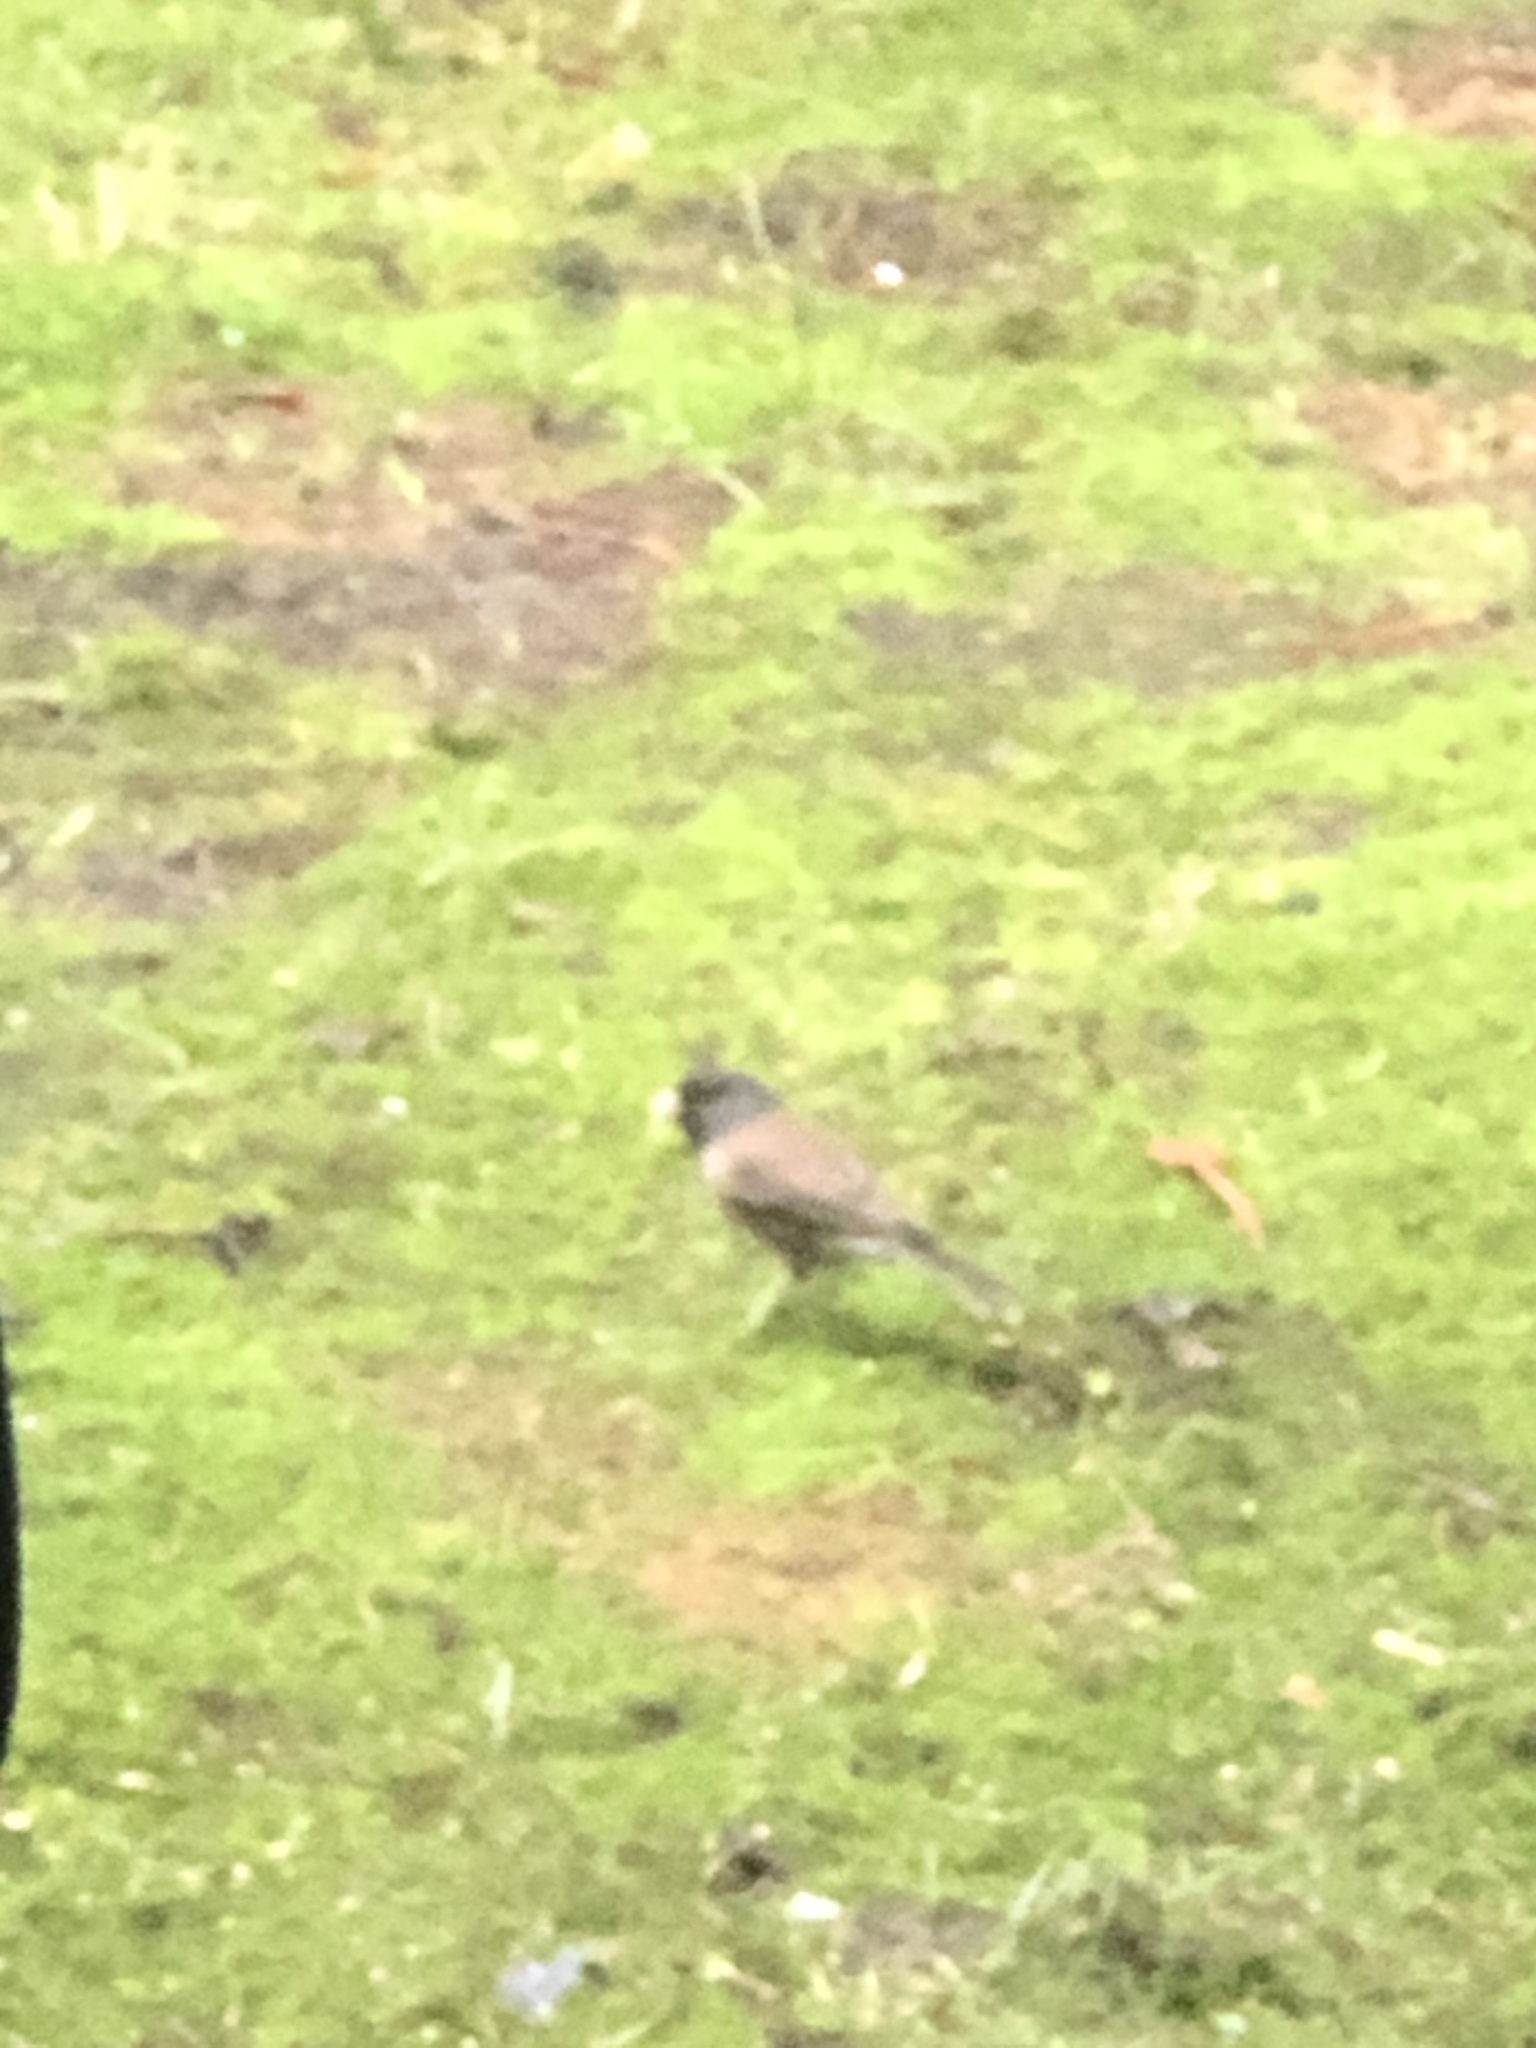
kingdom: Animalia
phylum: Chordata
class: Aves
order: Passeriformes
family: Passerellidae
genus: Junco
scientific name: Junco hyemalis
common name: Dark-eyed junco
